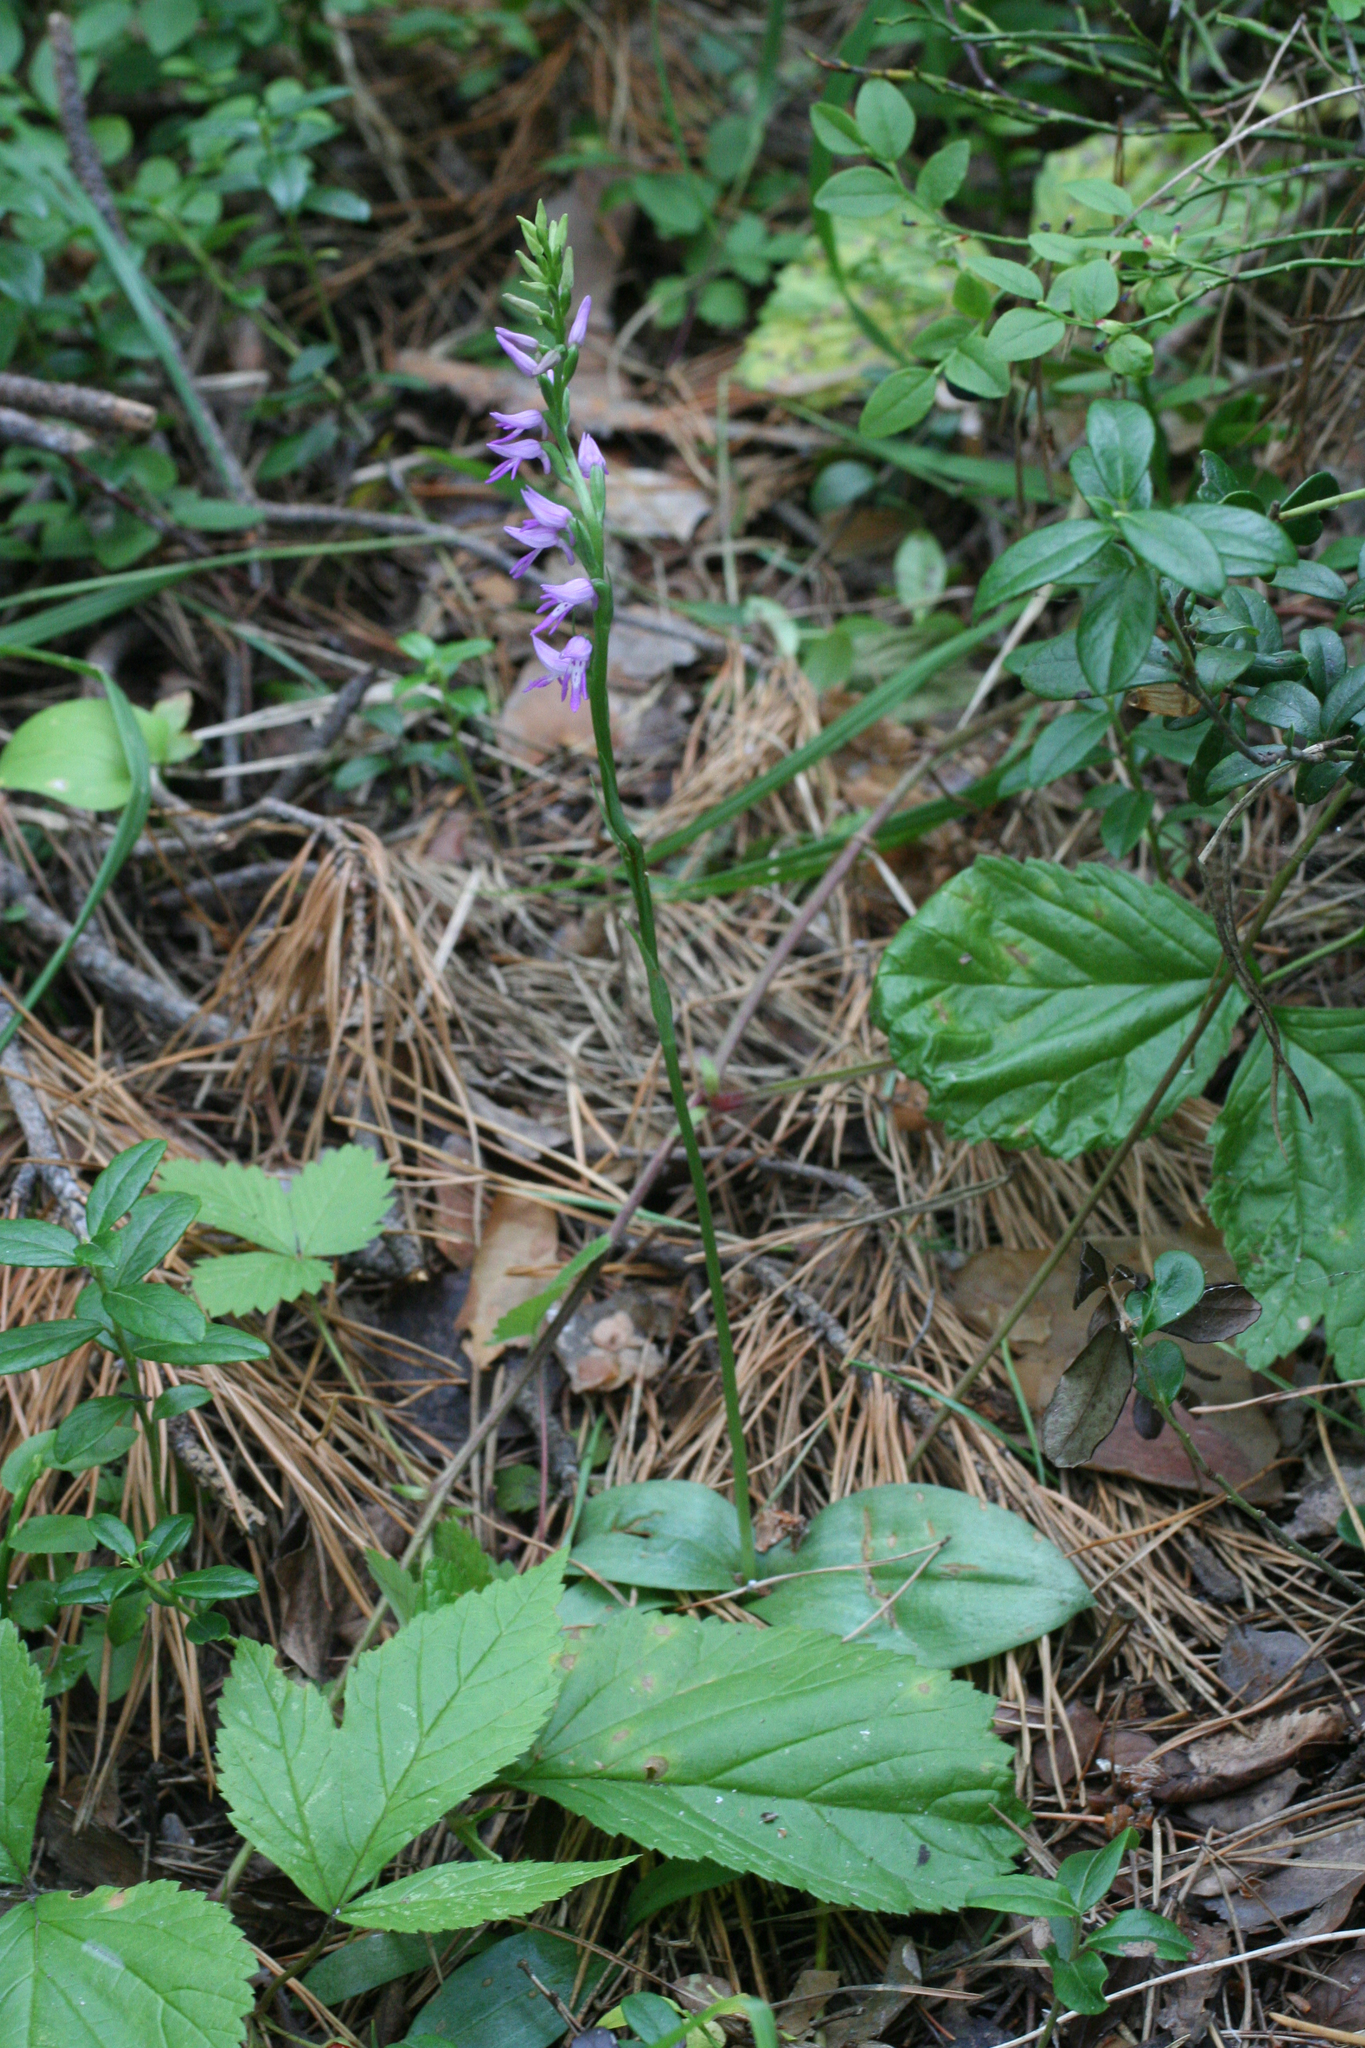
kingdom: Plantae
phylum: Tracheophyta
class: Liliopsida
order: Asparagales
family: Orchidaceae
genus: Hemipilia
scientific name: Hemipilia cucullata
